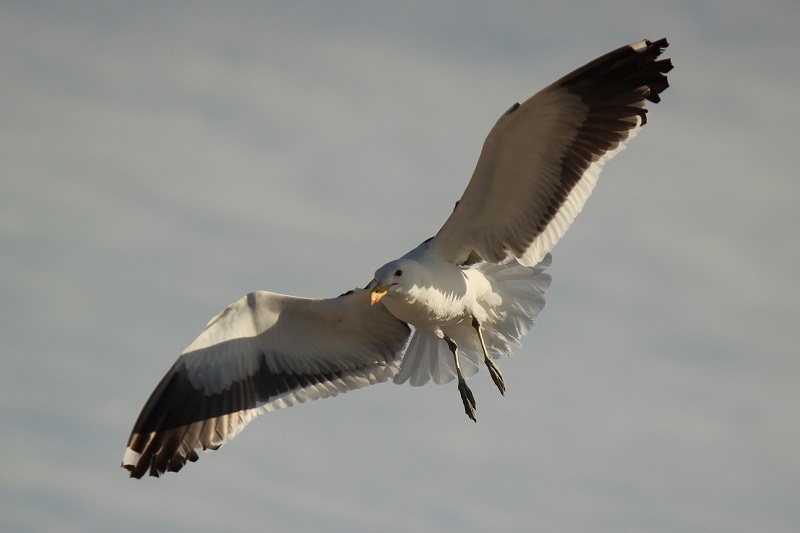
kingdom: Animalia
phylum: Chordata
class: Aves
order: Charadriiformes
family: Laridae
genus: Larus
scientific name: Larus dominicanus
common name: Kelp gull
